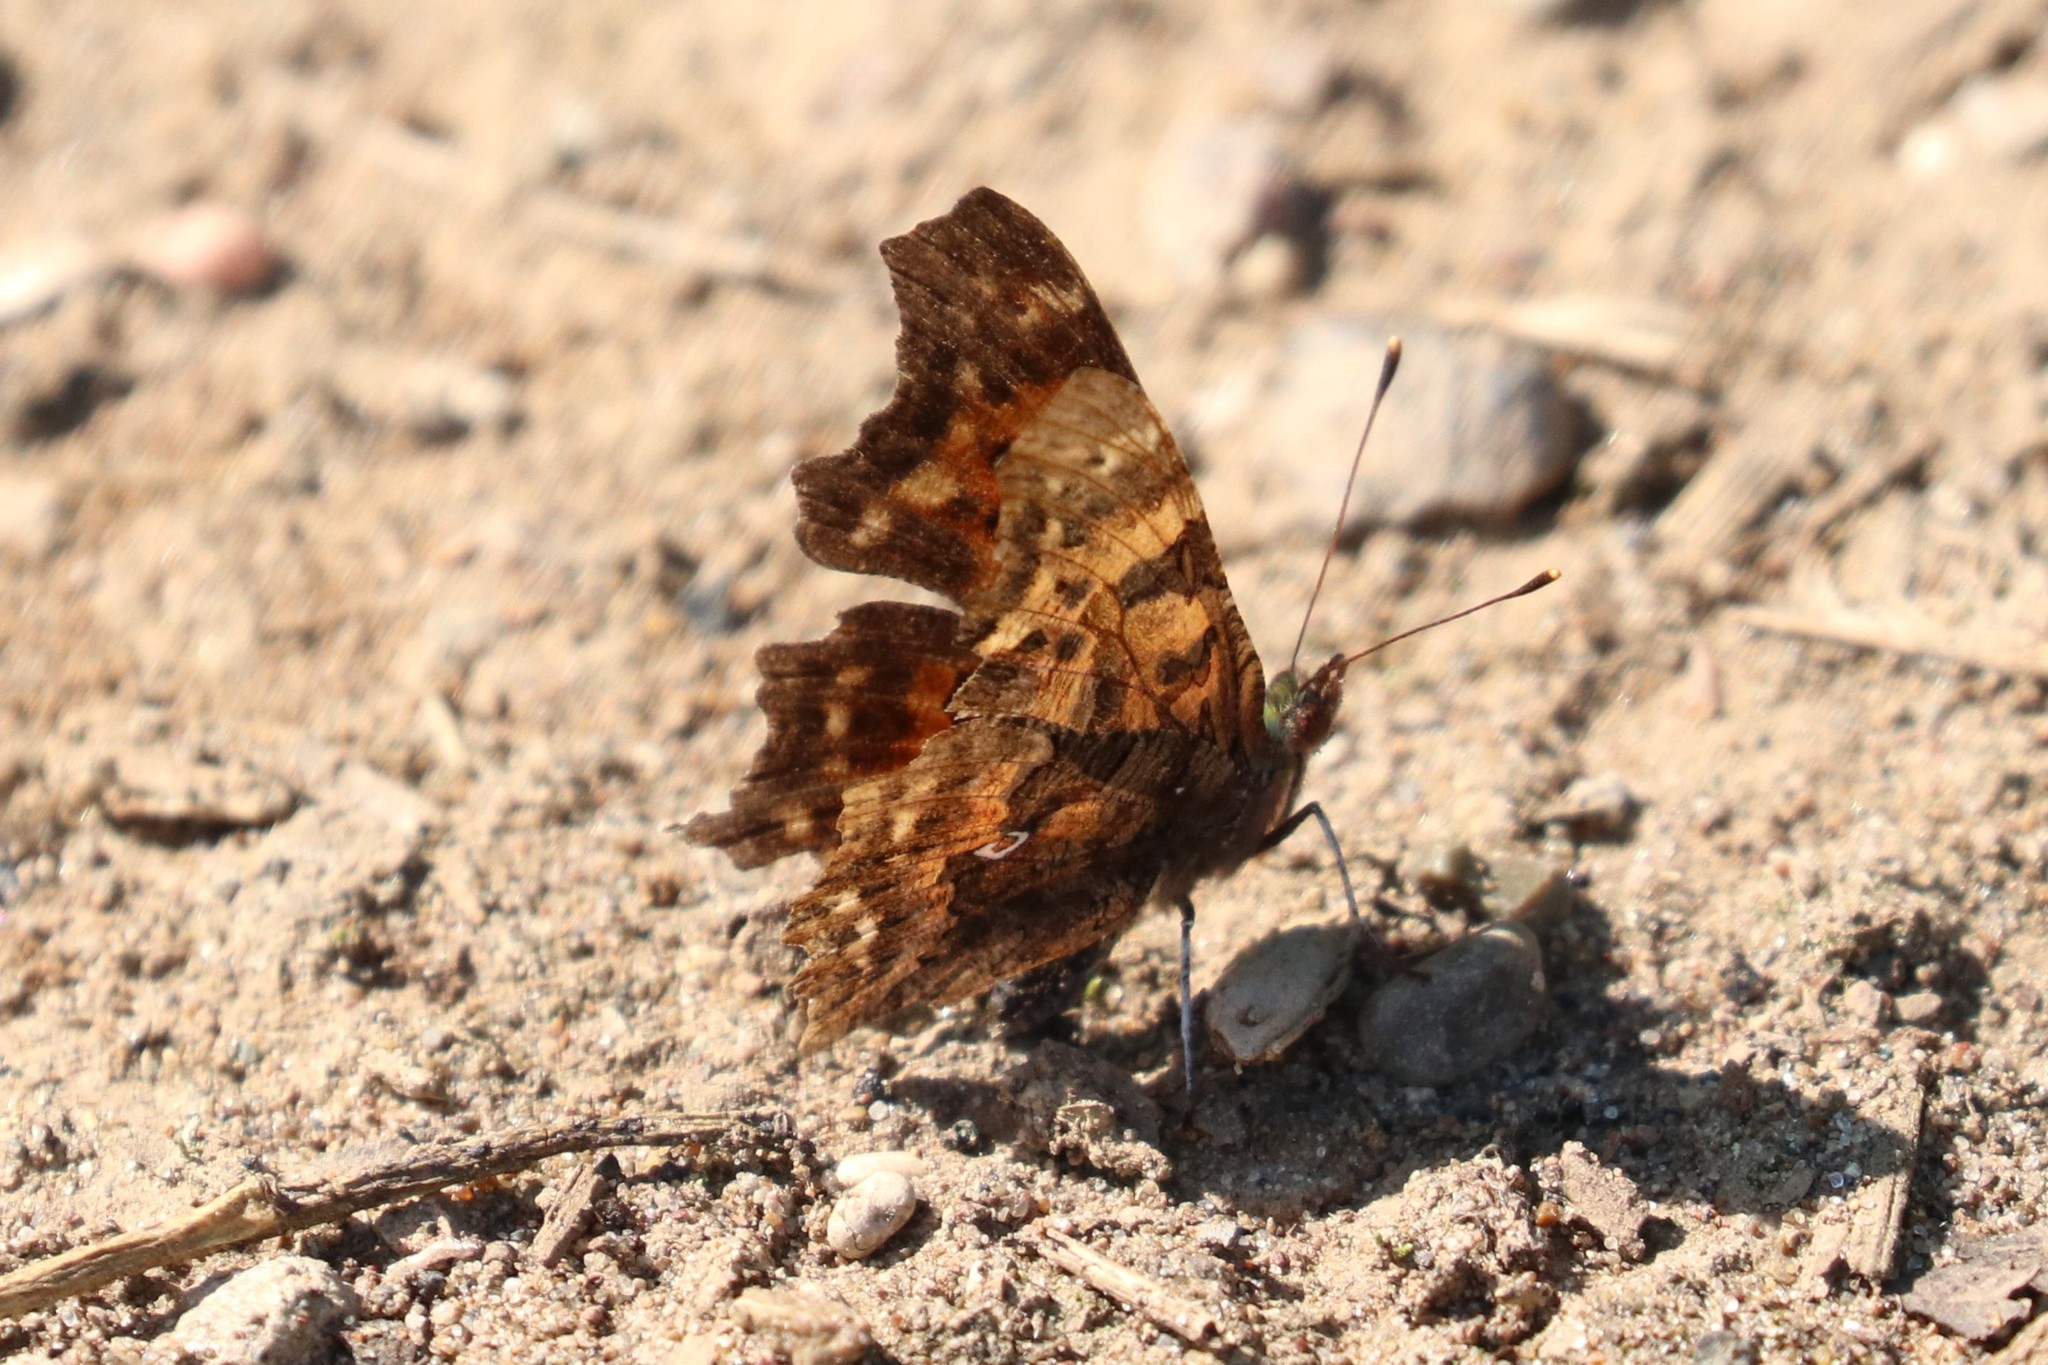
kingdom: Animalia
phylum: Arthropoda
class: Insecta
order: Lepidoptera
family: Nymphalidae
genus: Polygonia
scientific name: Polygonia c-album
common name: Comma
